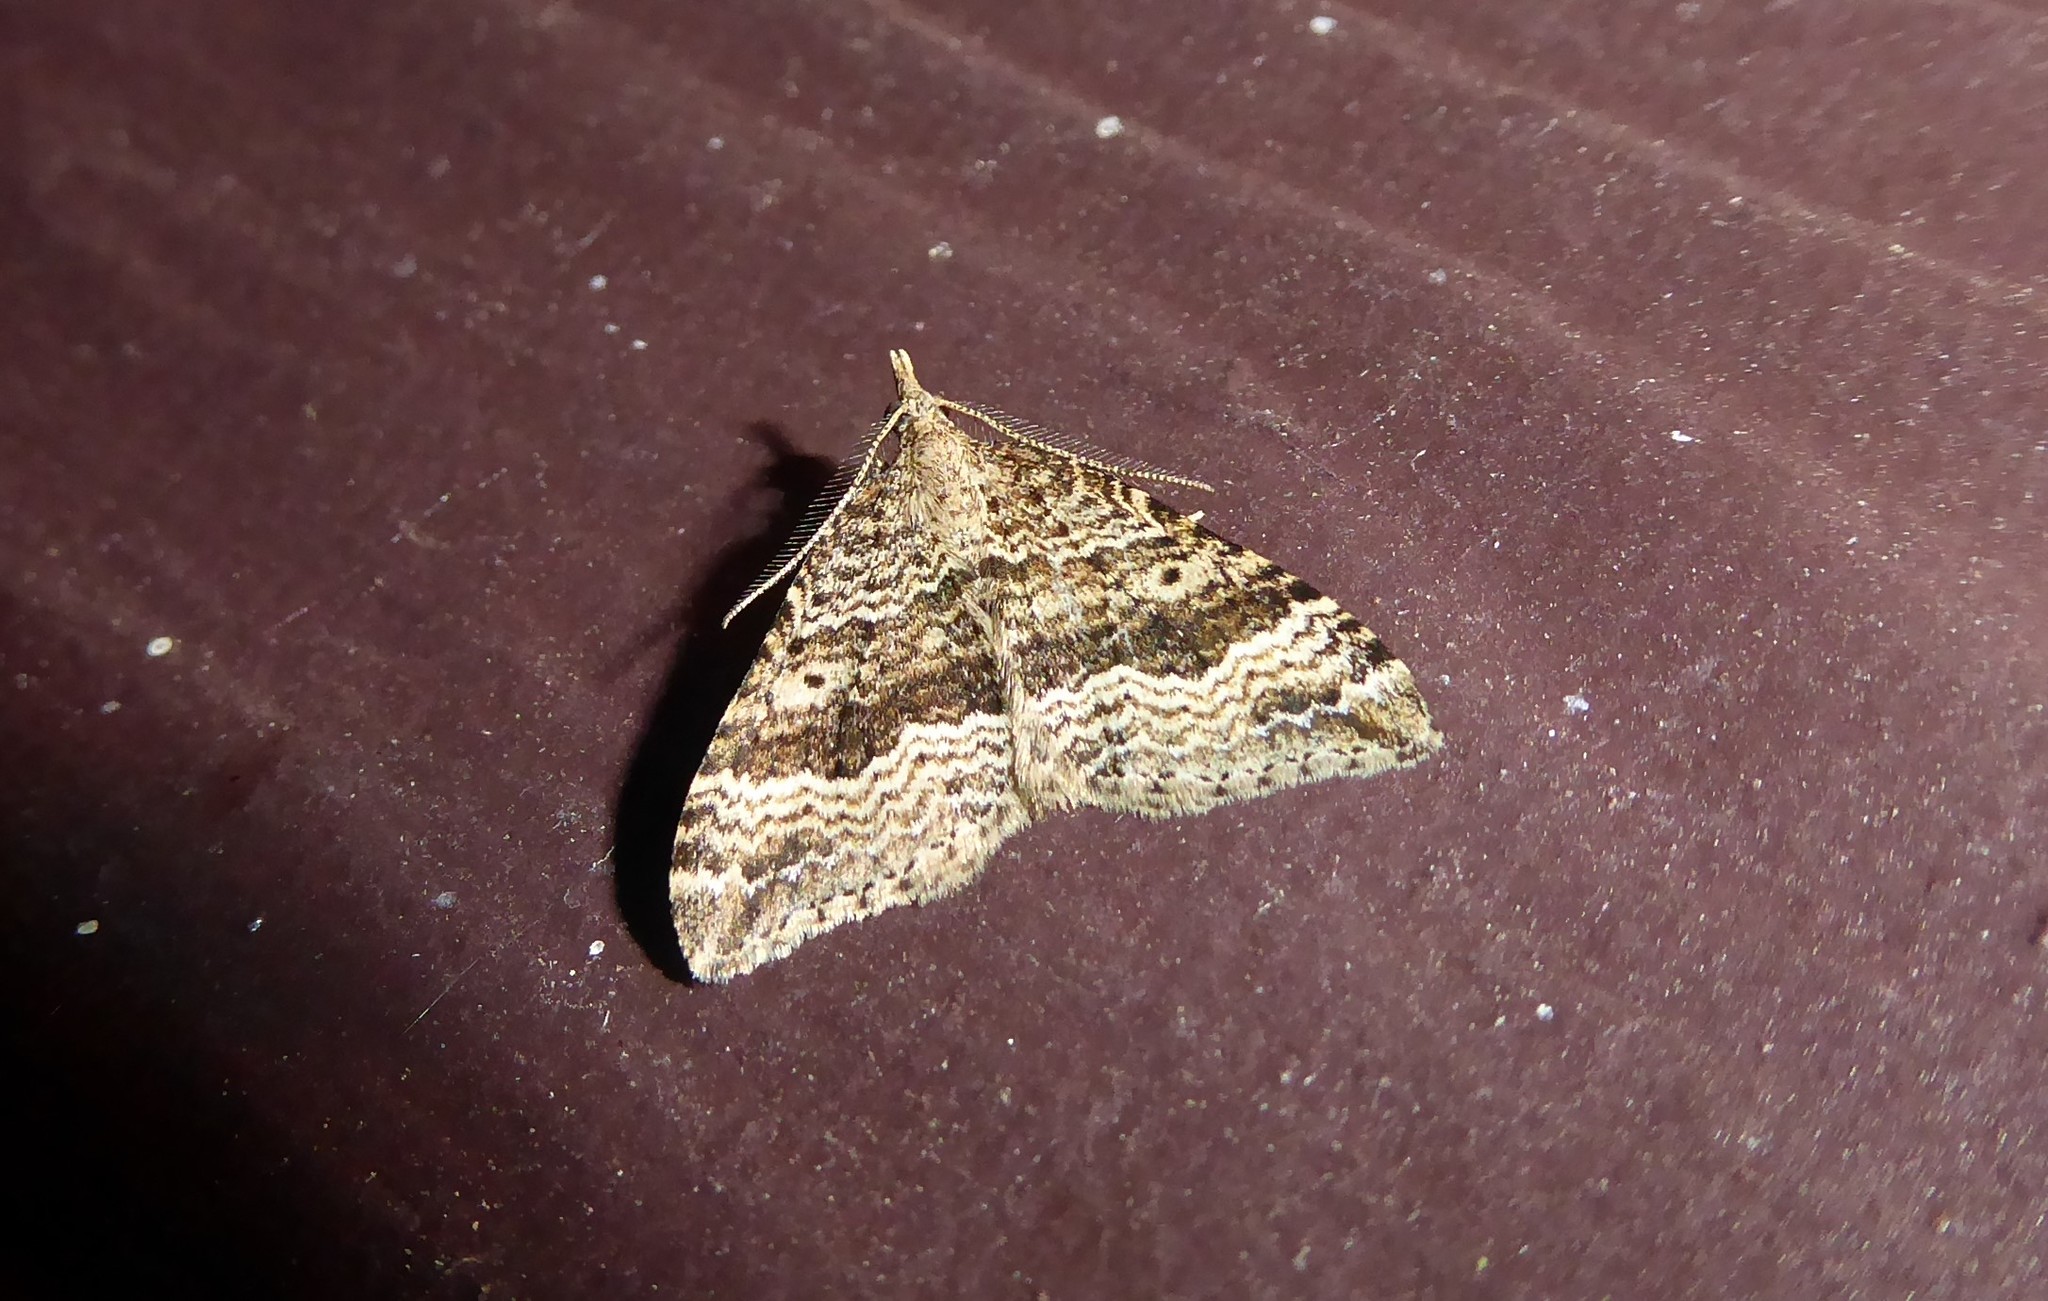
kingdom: Animalia
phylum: Arthropoda
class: Insecta
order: Lepidoptera
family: Geometridae
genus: Homodotis
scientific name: Homodotis falcata
